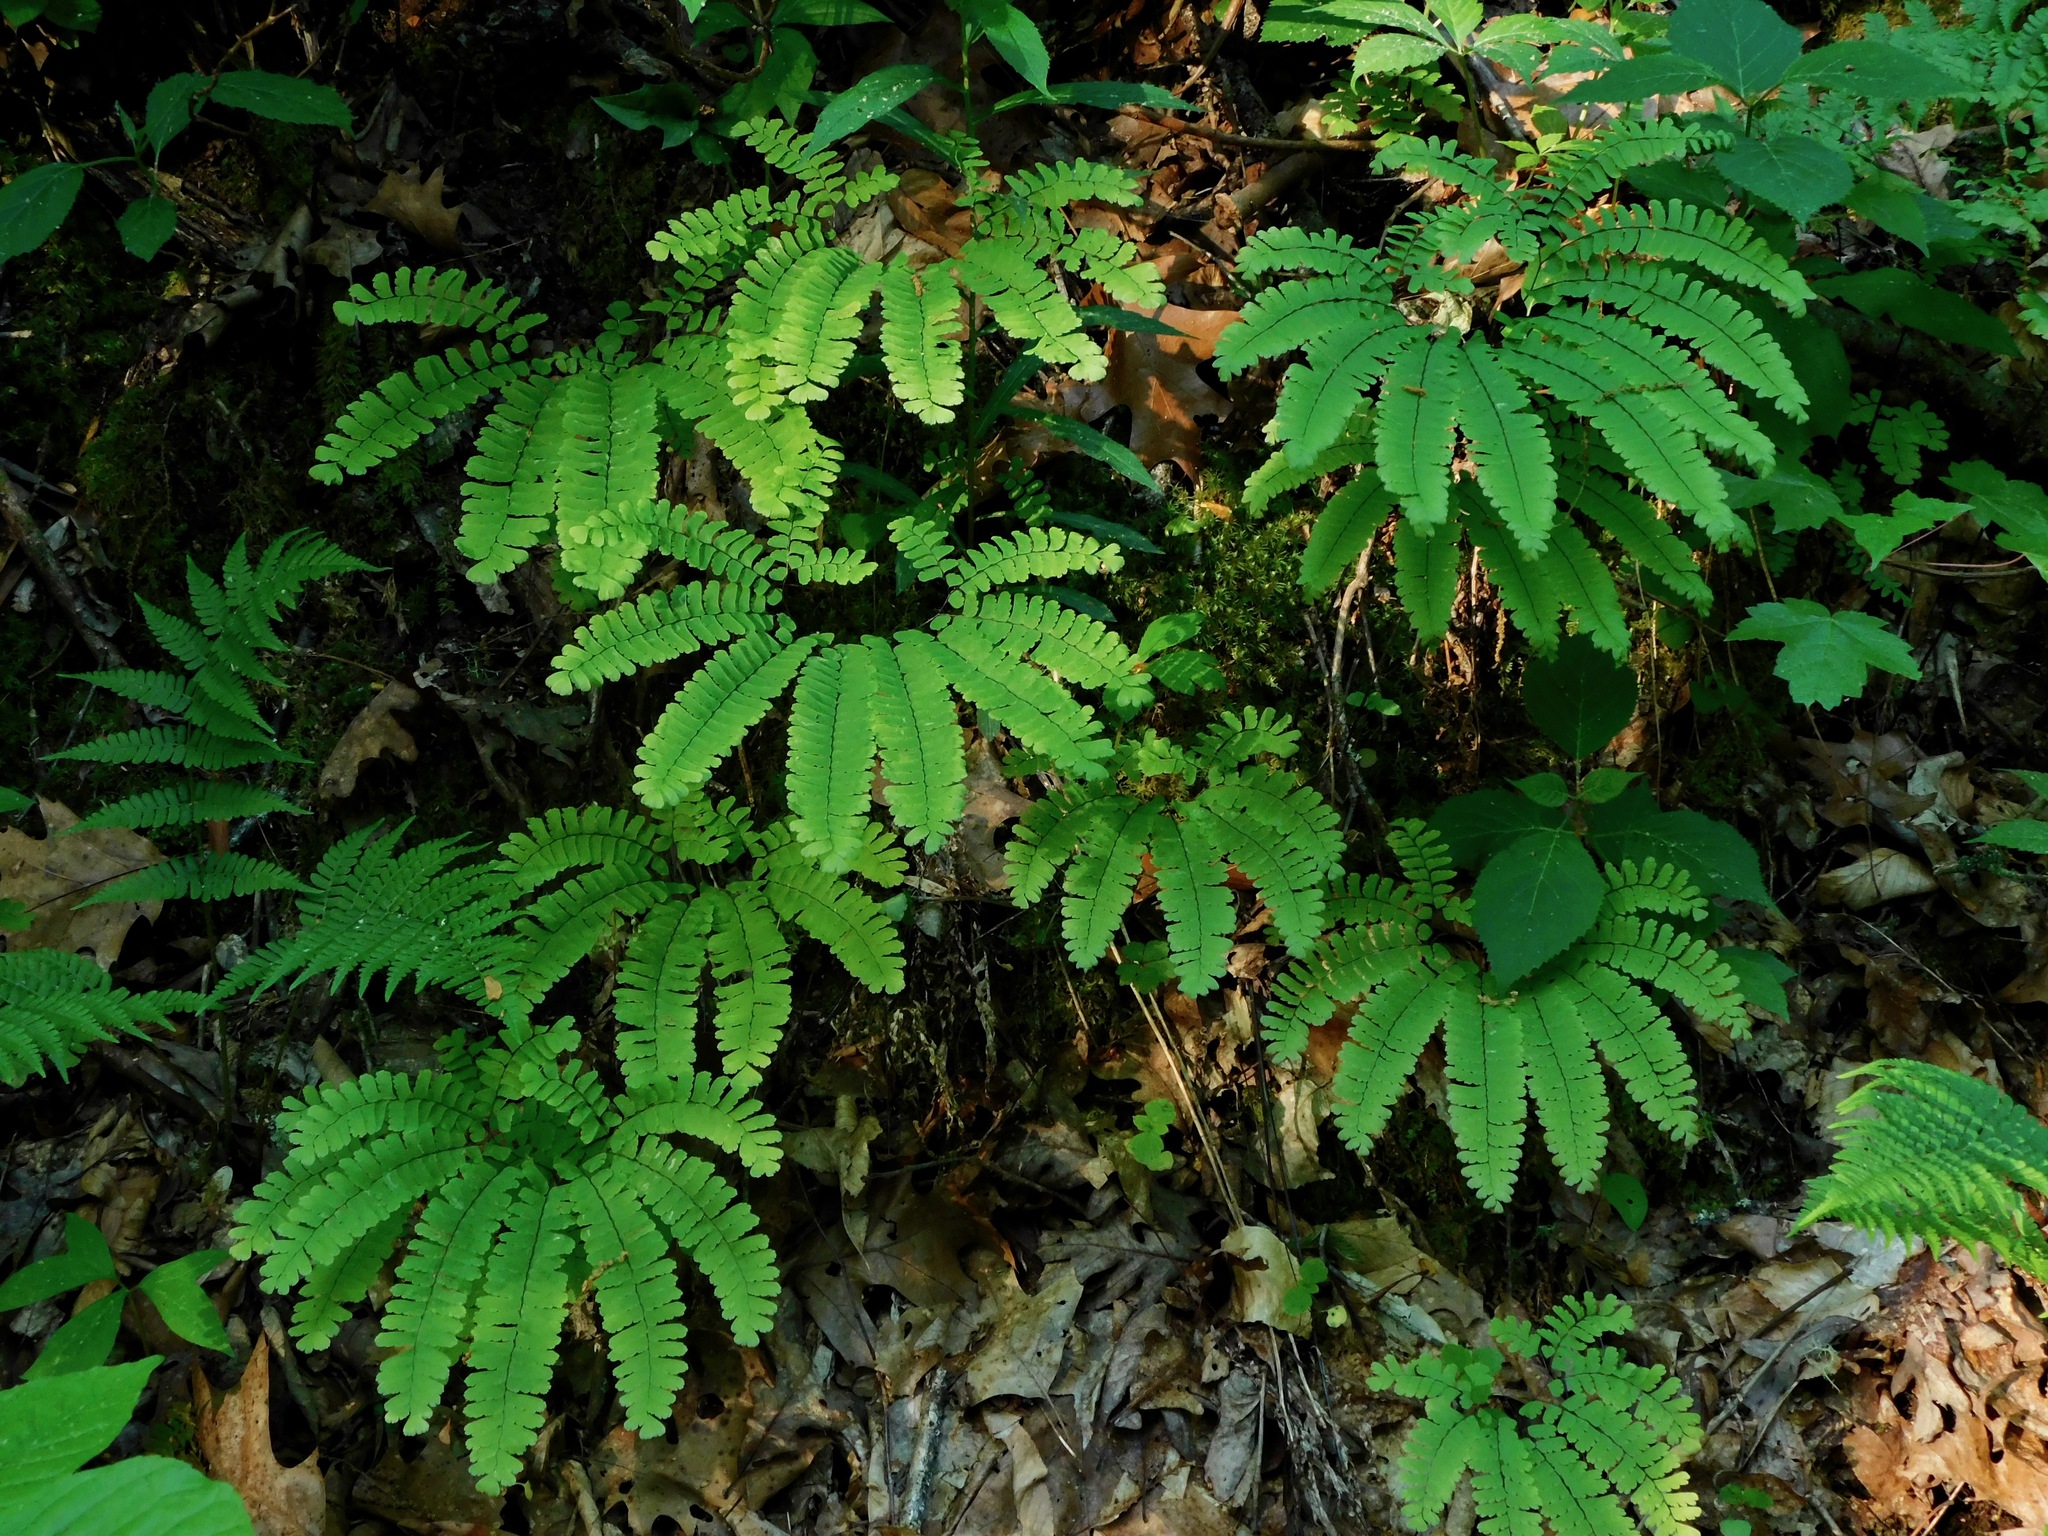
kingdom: Plantae
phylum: Tracheophyta
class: Polypodiopsida
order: Polypodiales
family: Pteridaceae
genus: Adiantum
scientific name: Adiantum pedatum
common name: Five-finger fern
